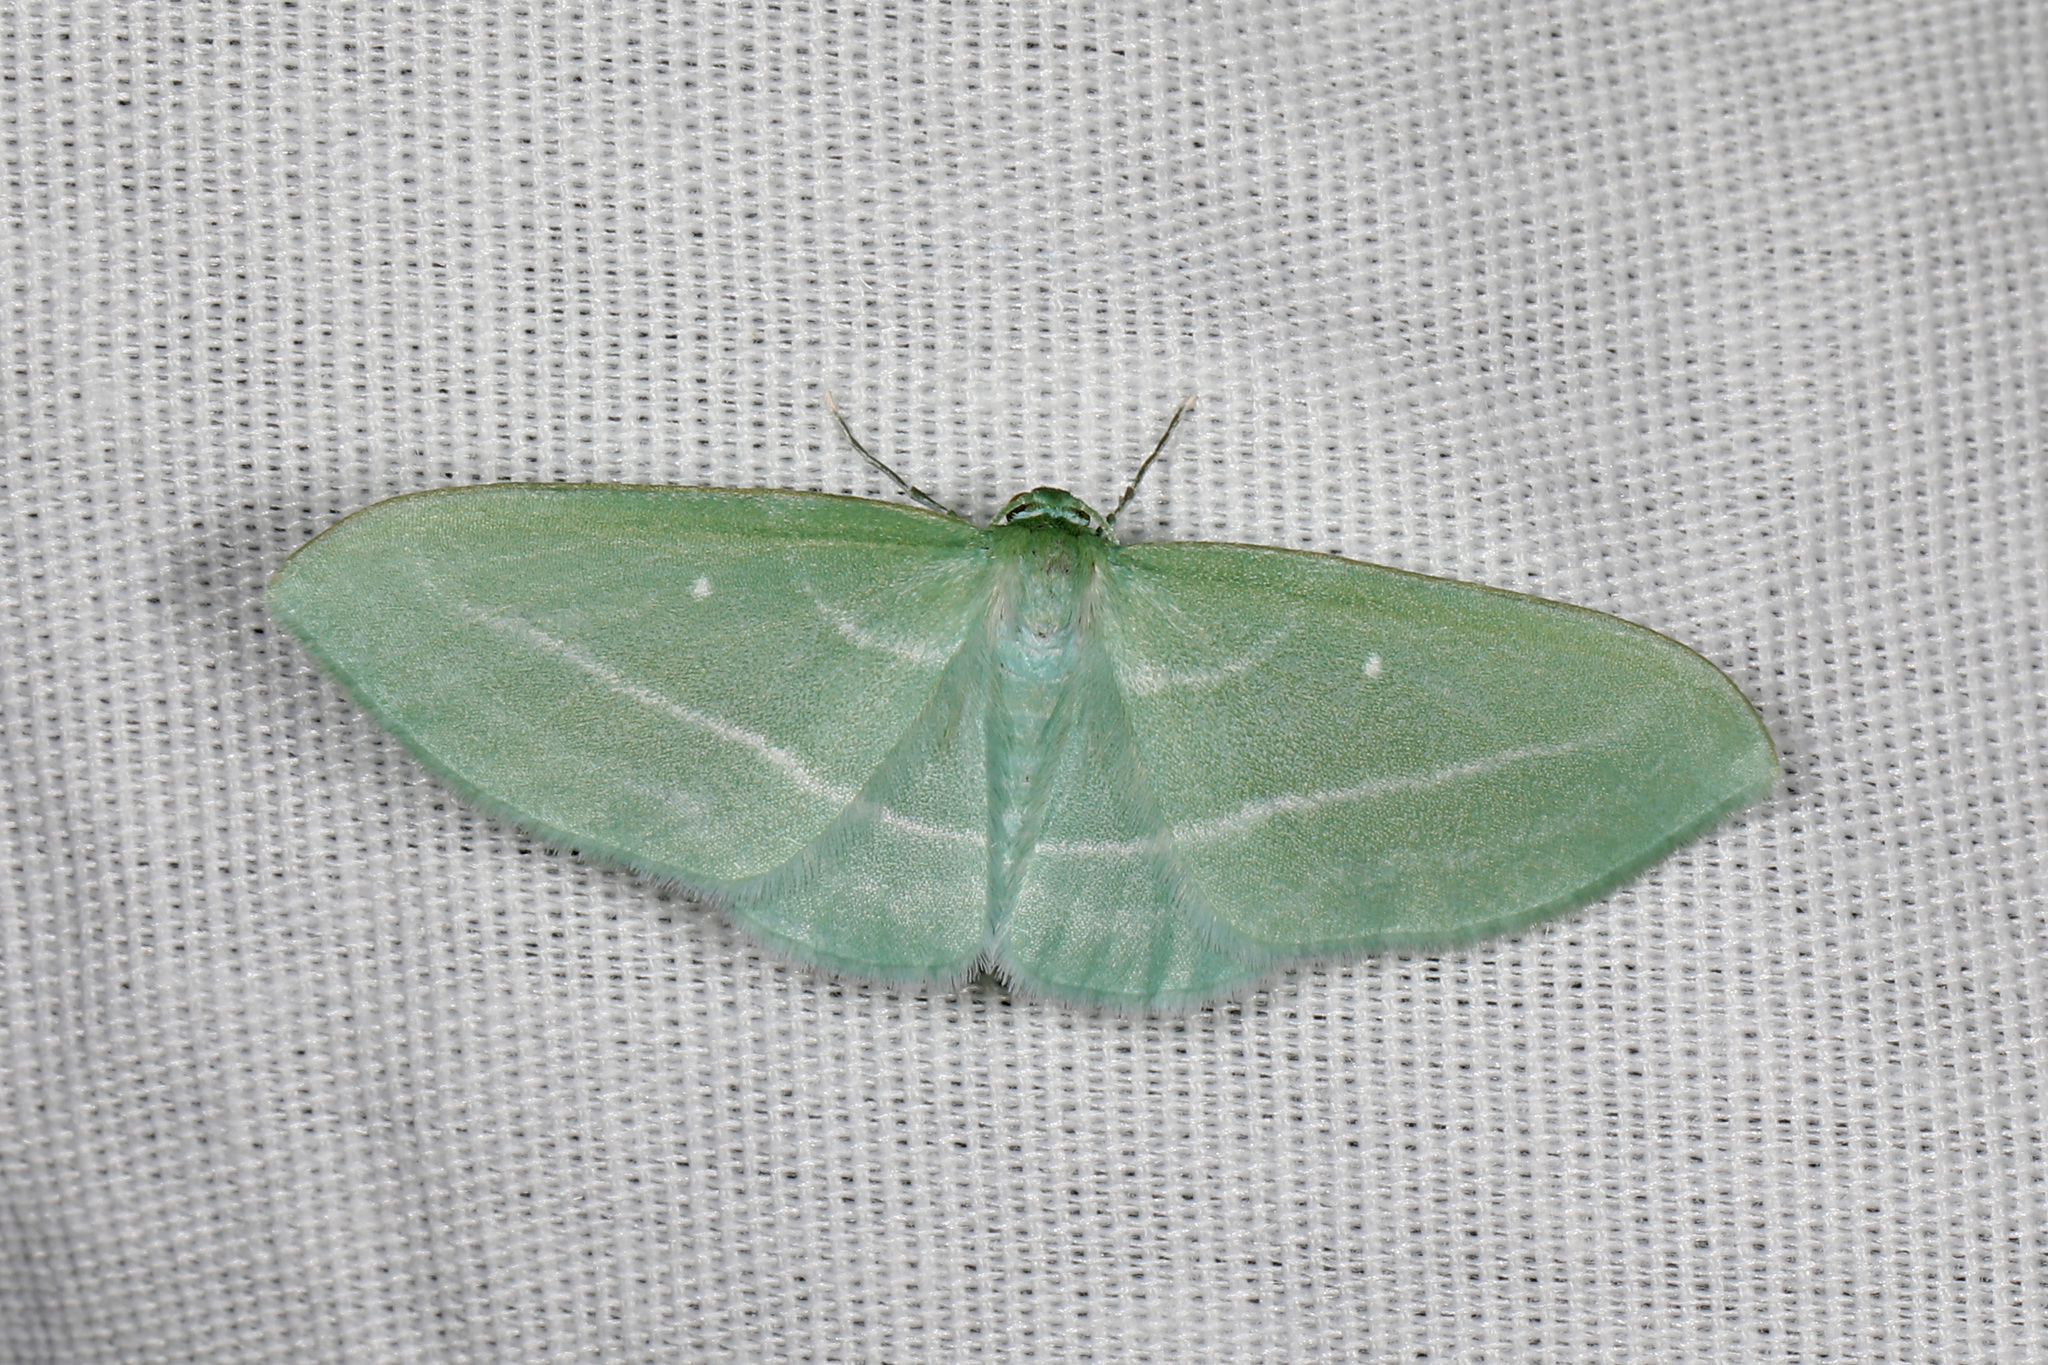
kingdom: Animalia
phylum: Arthropoda
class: Insecta
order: Lepidoptera
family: Geometridae
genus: Dyspteris
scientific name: Dyspteris abortivaria
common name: Bad-wing
